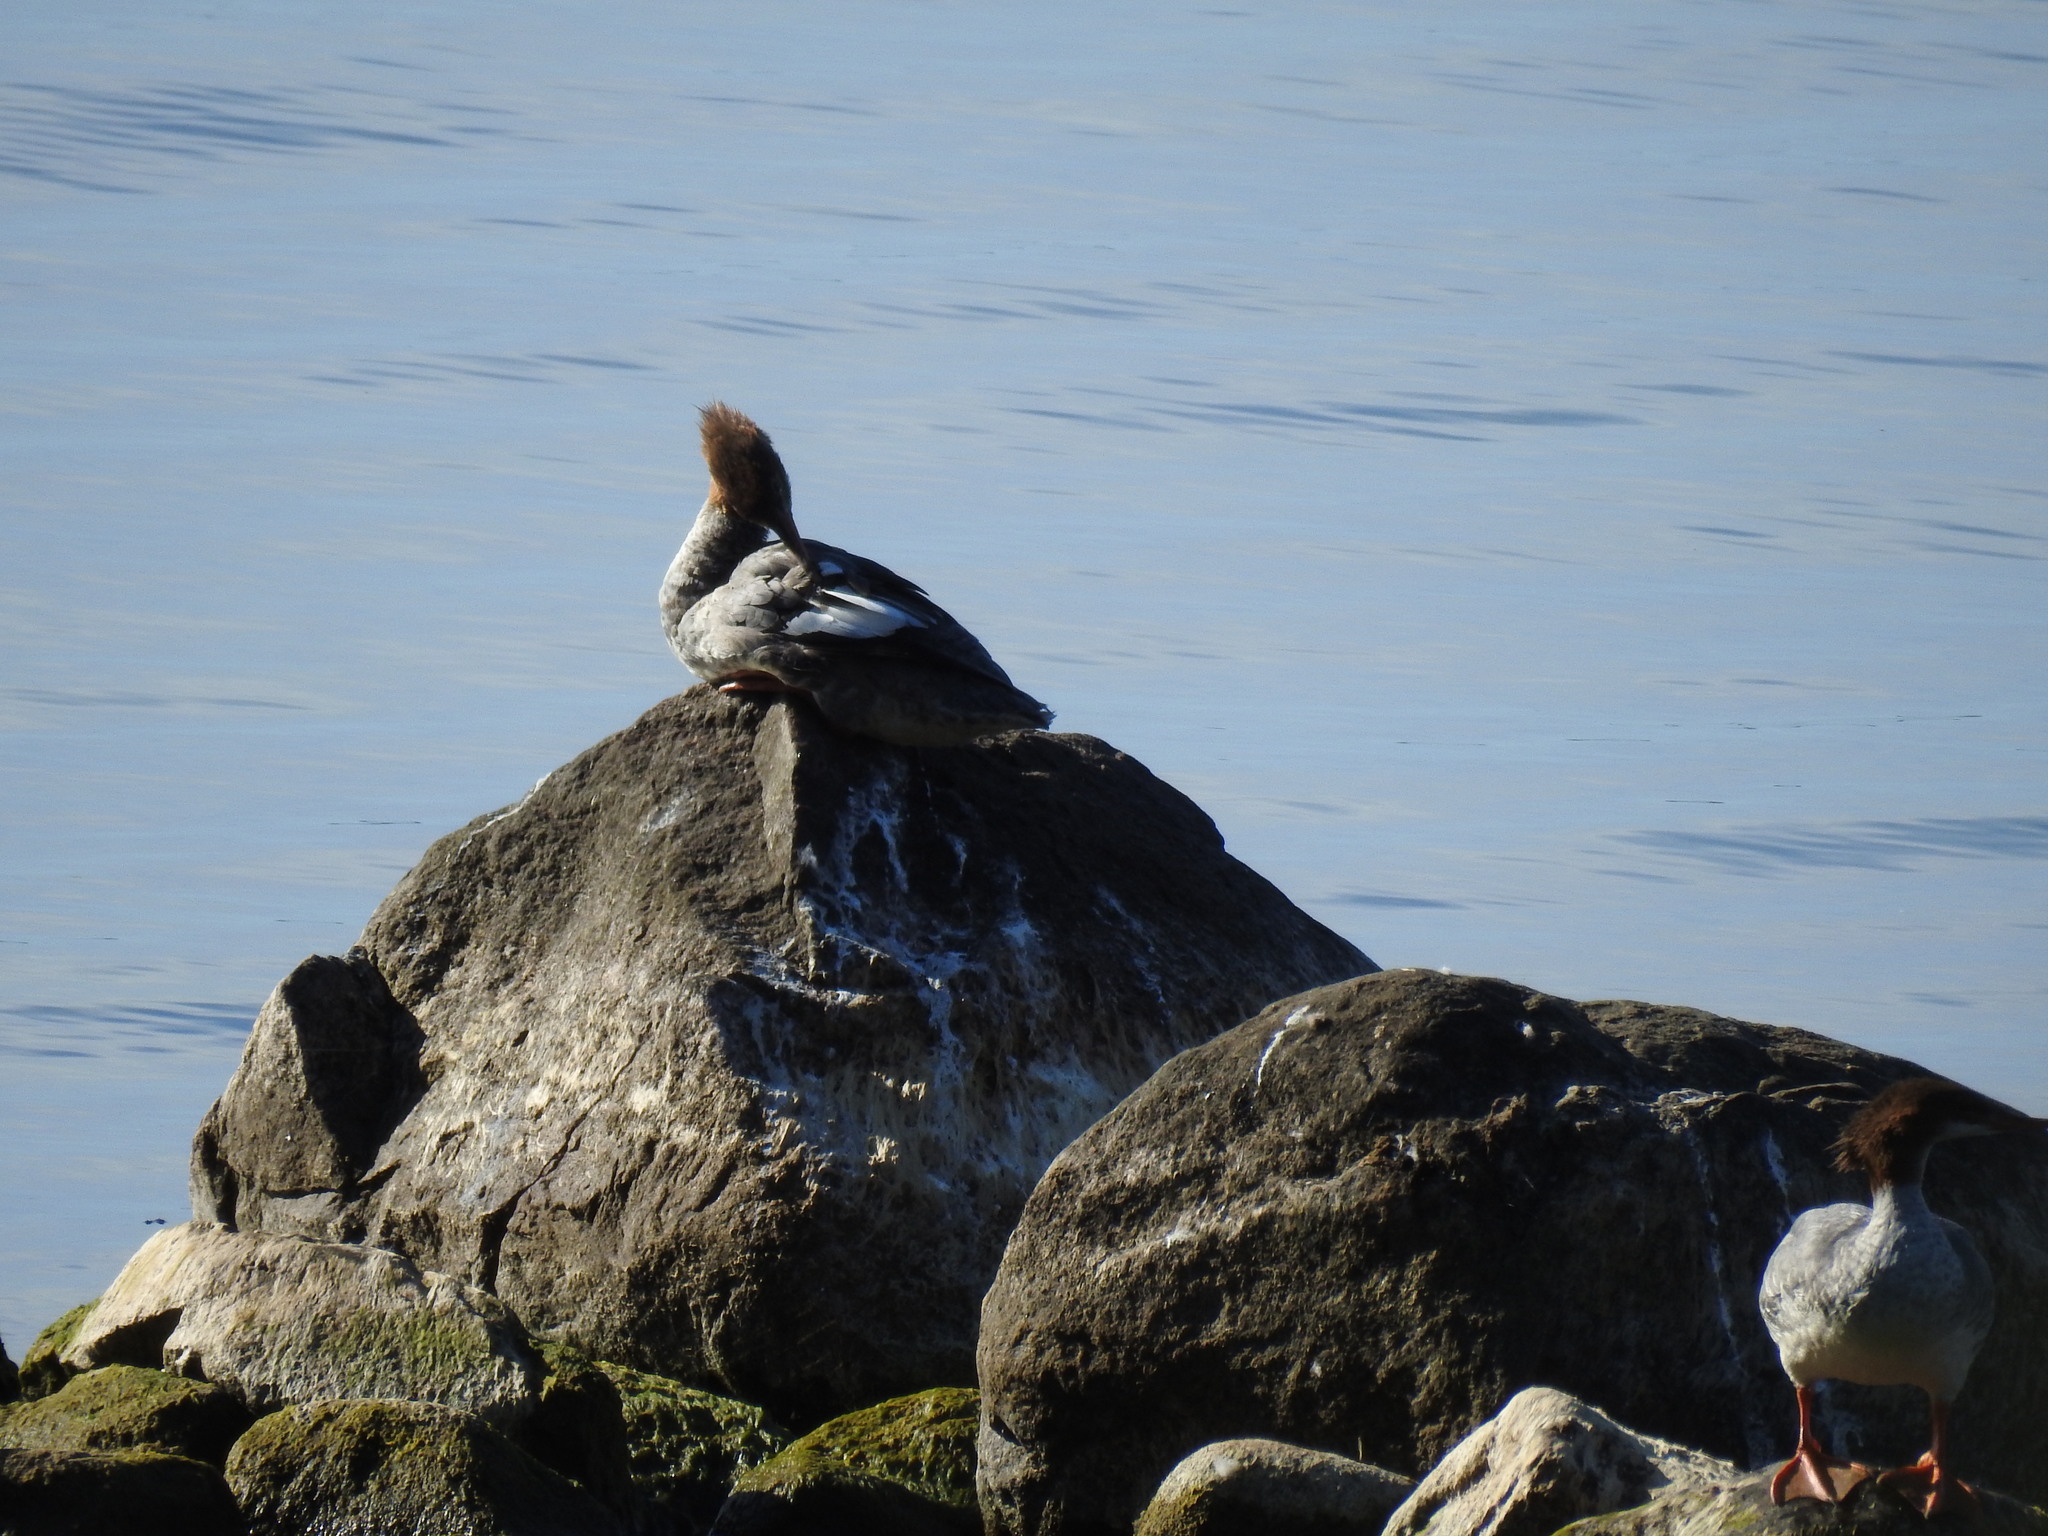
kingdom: Animalia
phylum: Chordata
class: Aves
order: Anseriformes
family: Anatidae
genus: Mergus
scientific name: Mergus merganser
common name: Common merganser
